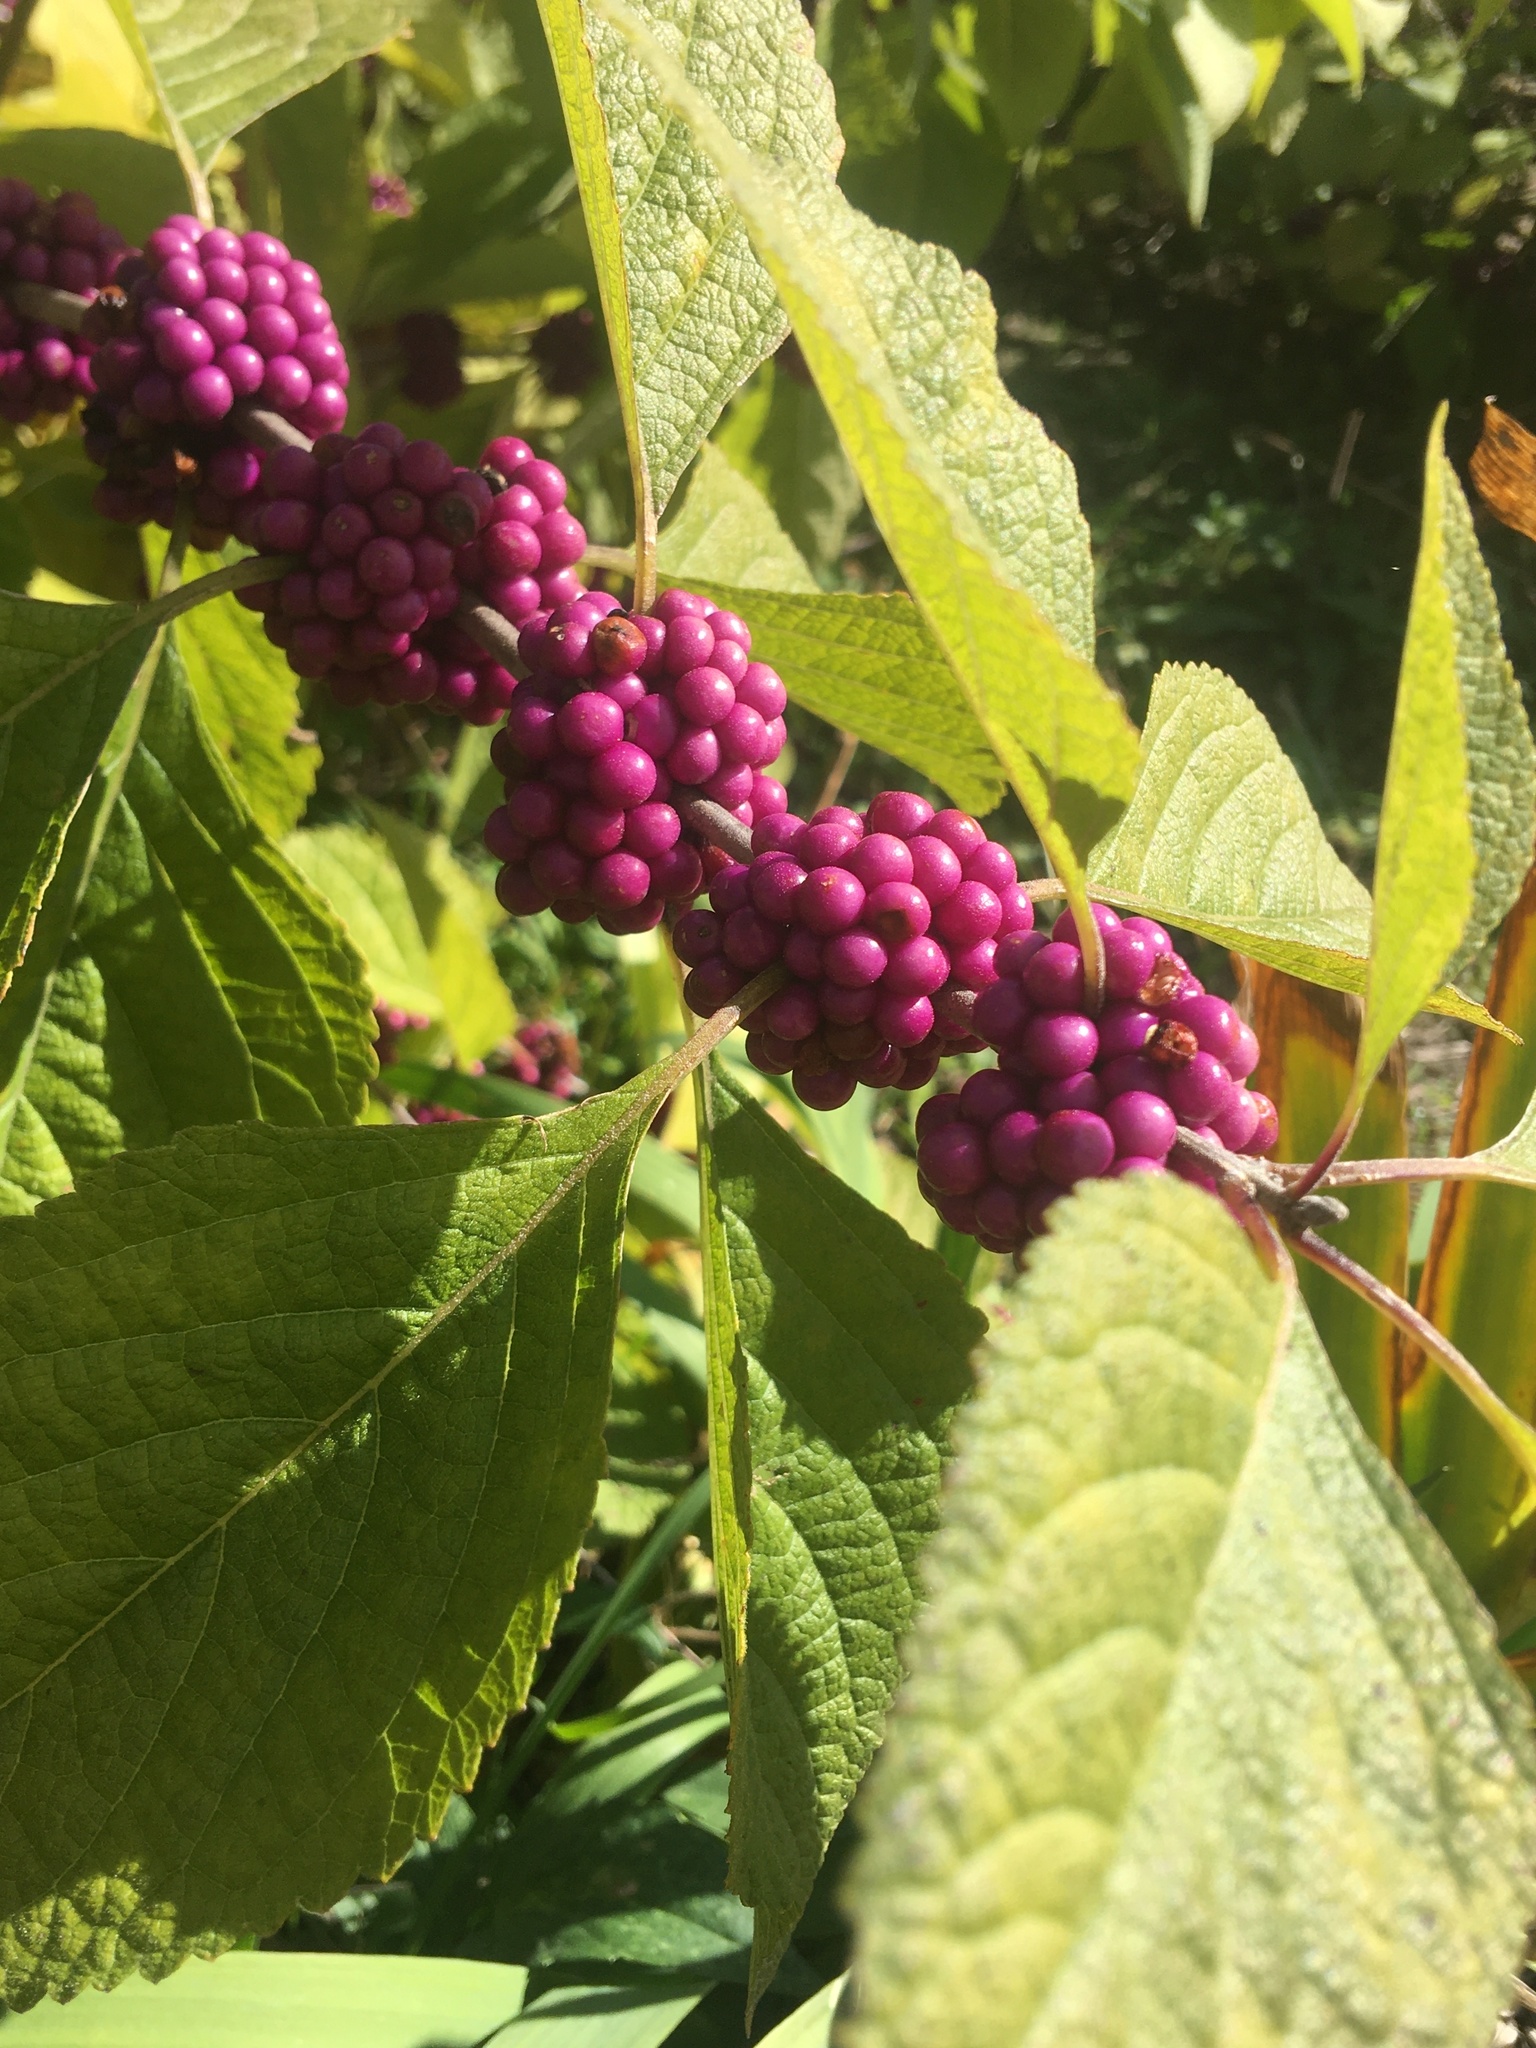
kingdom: Plantae
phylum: Tracheophyta
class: Magnoliopsida
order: Lamiales
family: Lamiaceae
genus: Callicarpa
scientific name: Callicarpa americana
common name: American beautyberry
